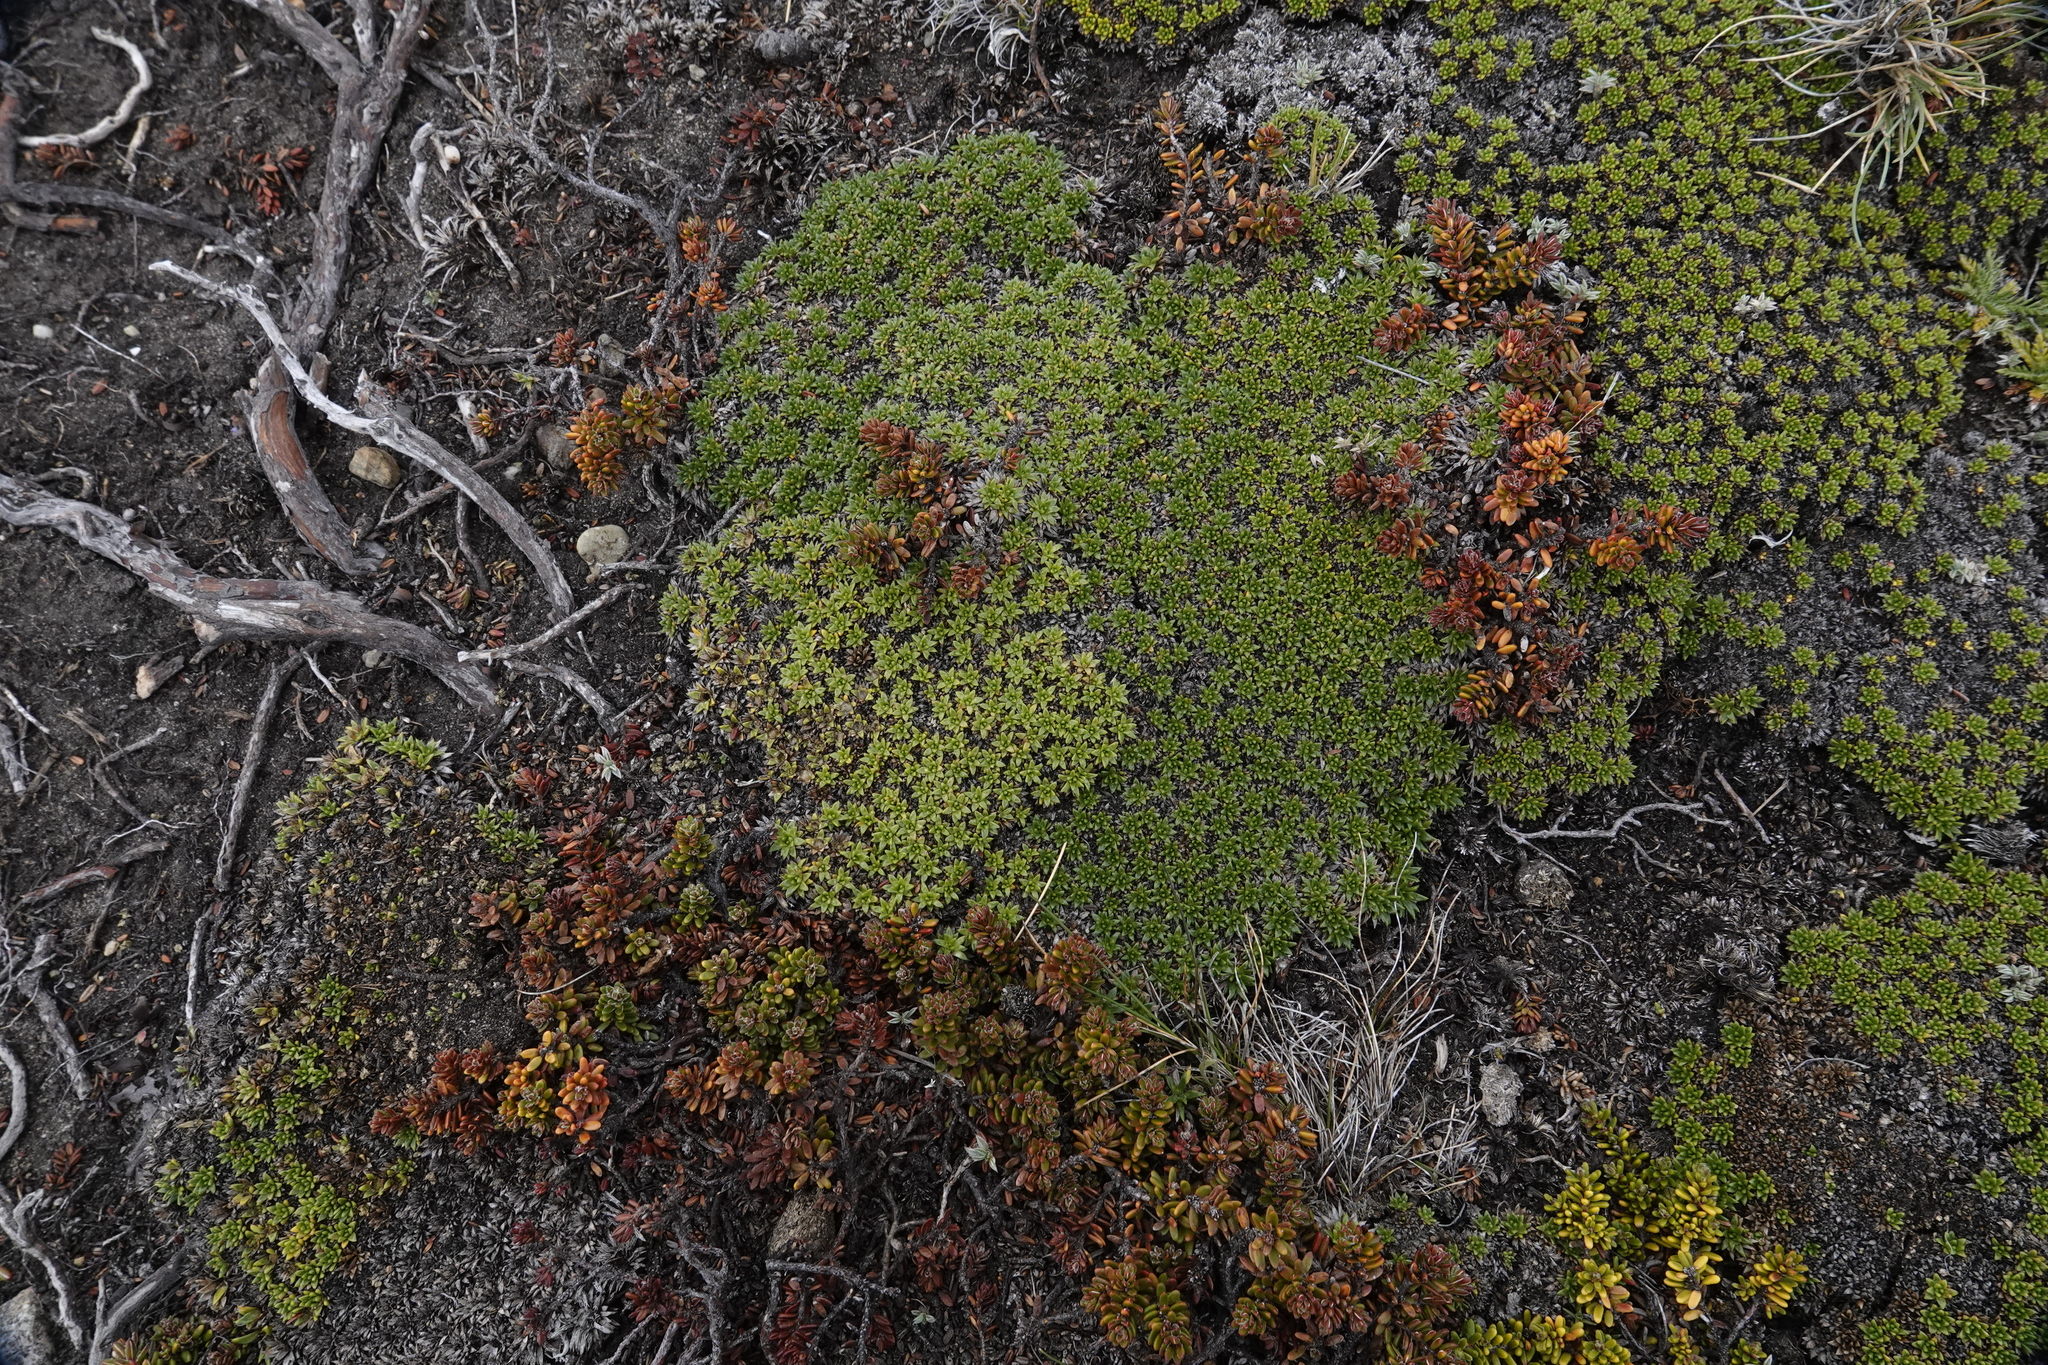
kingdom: Plantae
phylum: Tracheophyta
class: Magnoliopsida
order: Apiales
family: Apiaceae
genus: Azorella
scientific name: Azorella monantha
